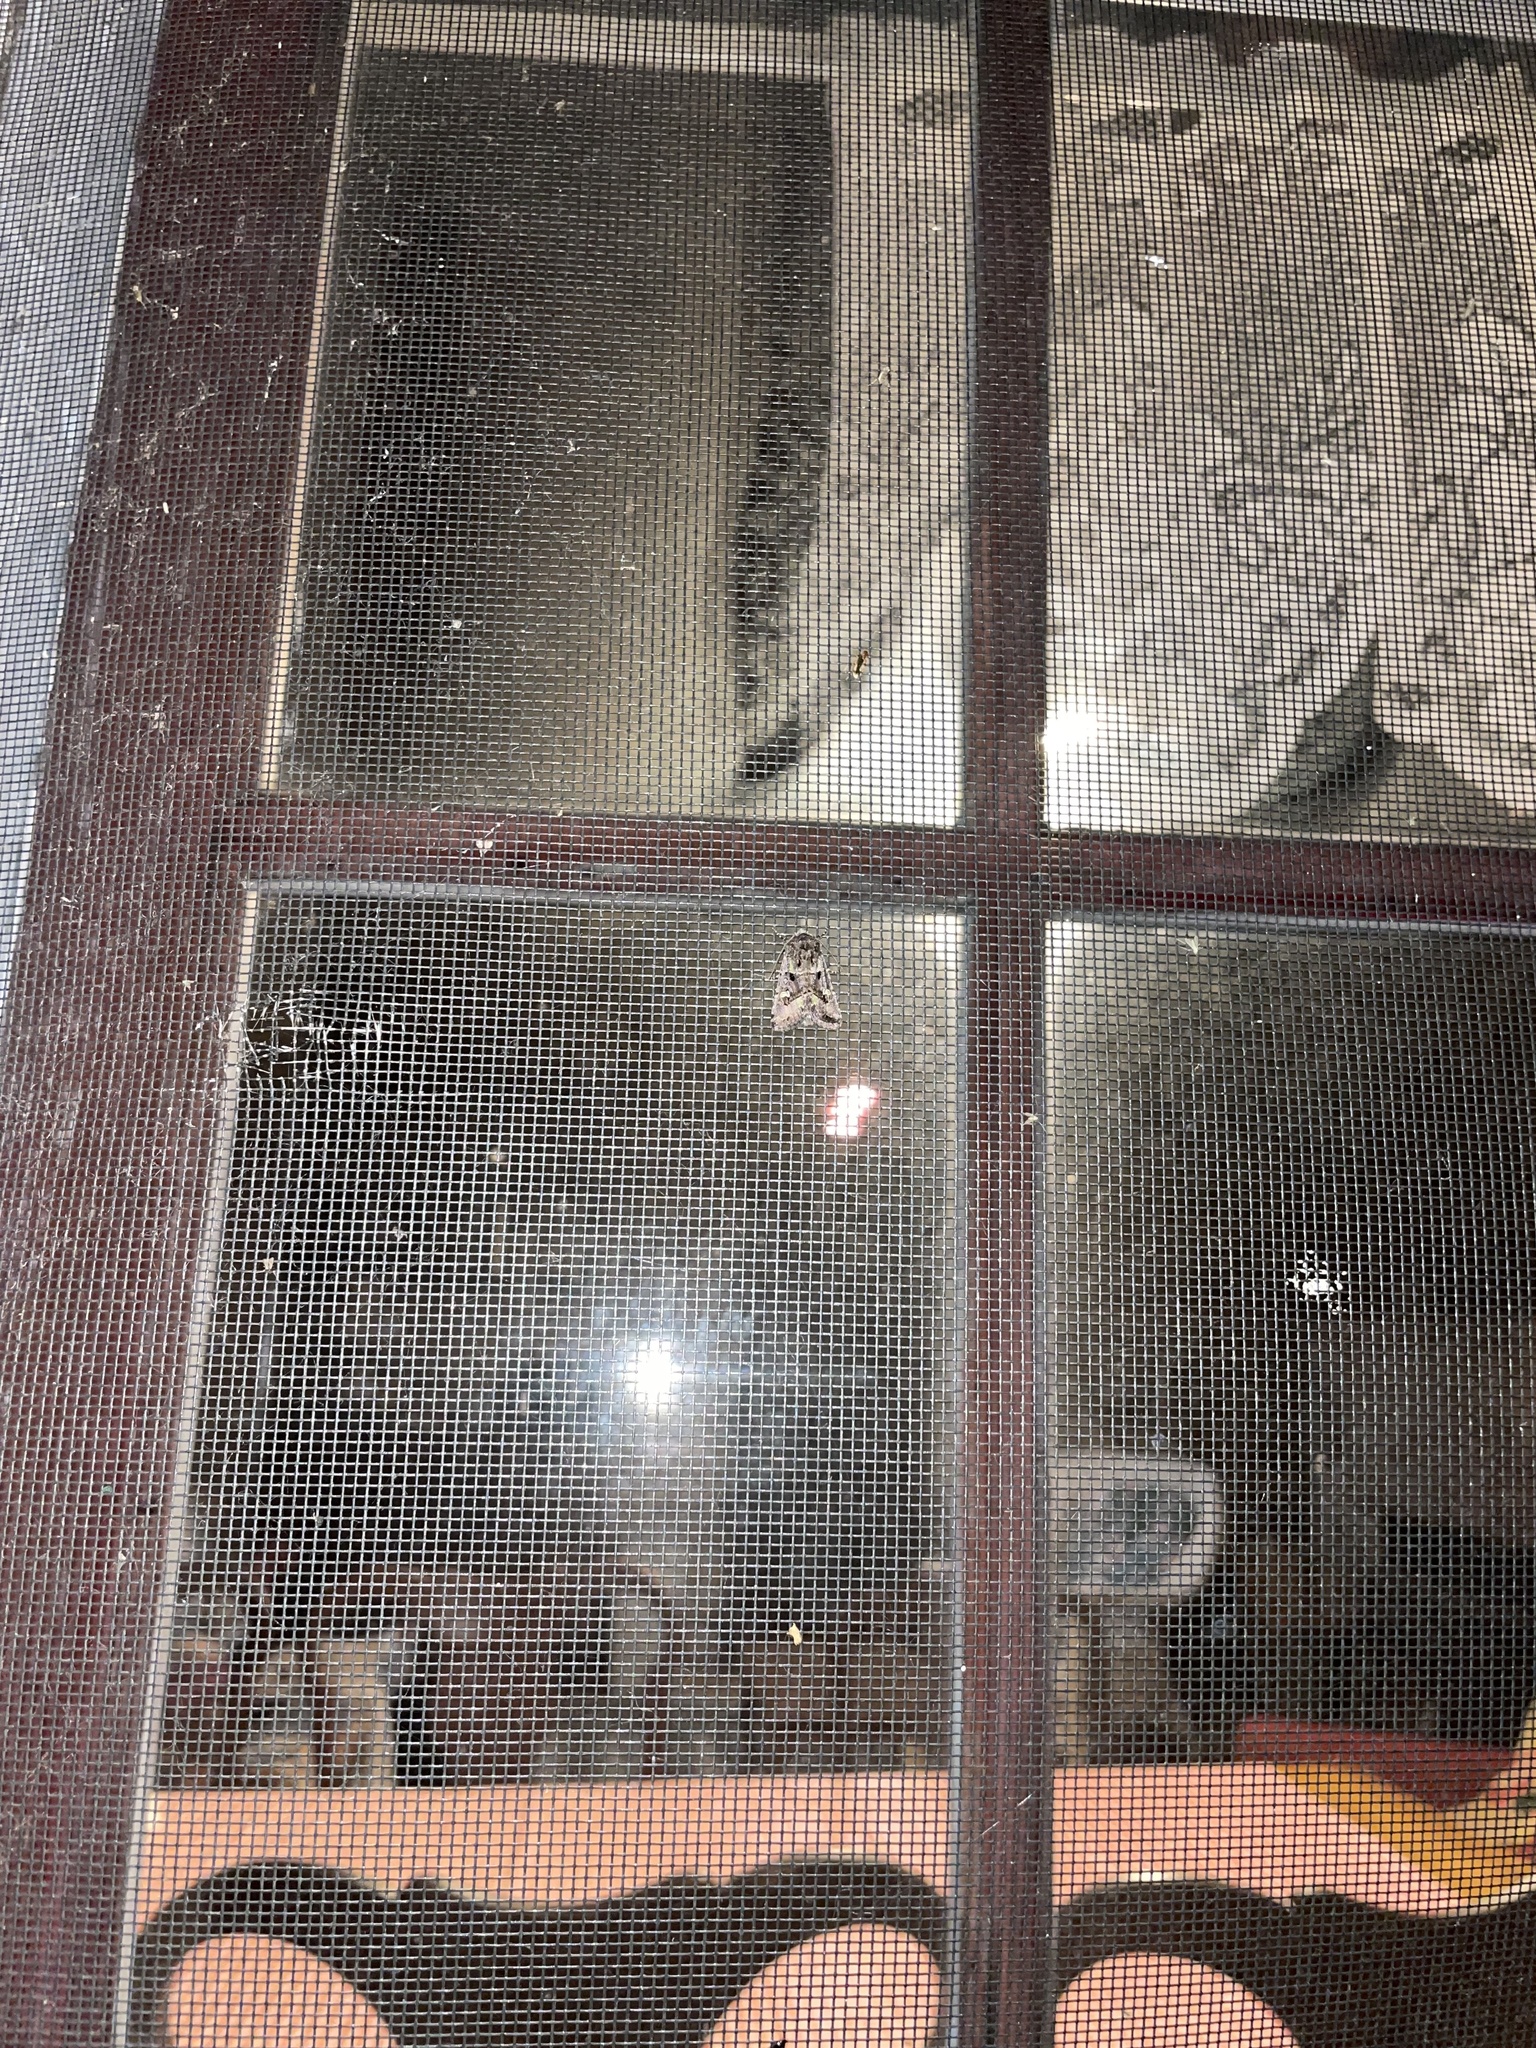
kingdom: Animalia
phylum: Arthropoda
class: Insecta
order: Lepidoptera
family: Noctuidae
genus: Lacinipolia
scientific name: Lacinipolia renigera
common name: Kidney-spotted minor
